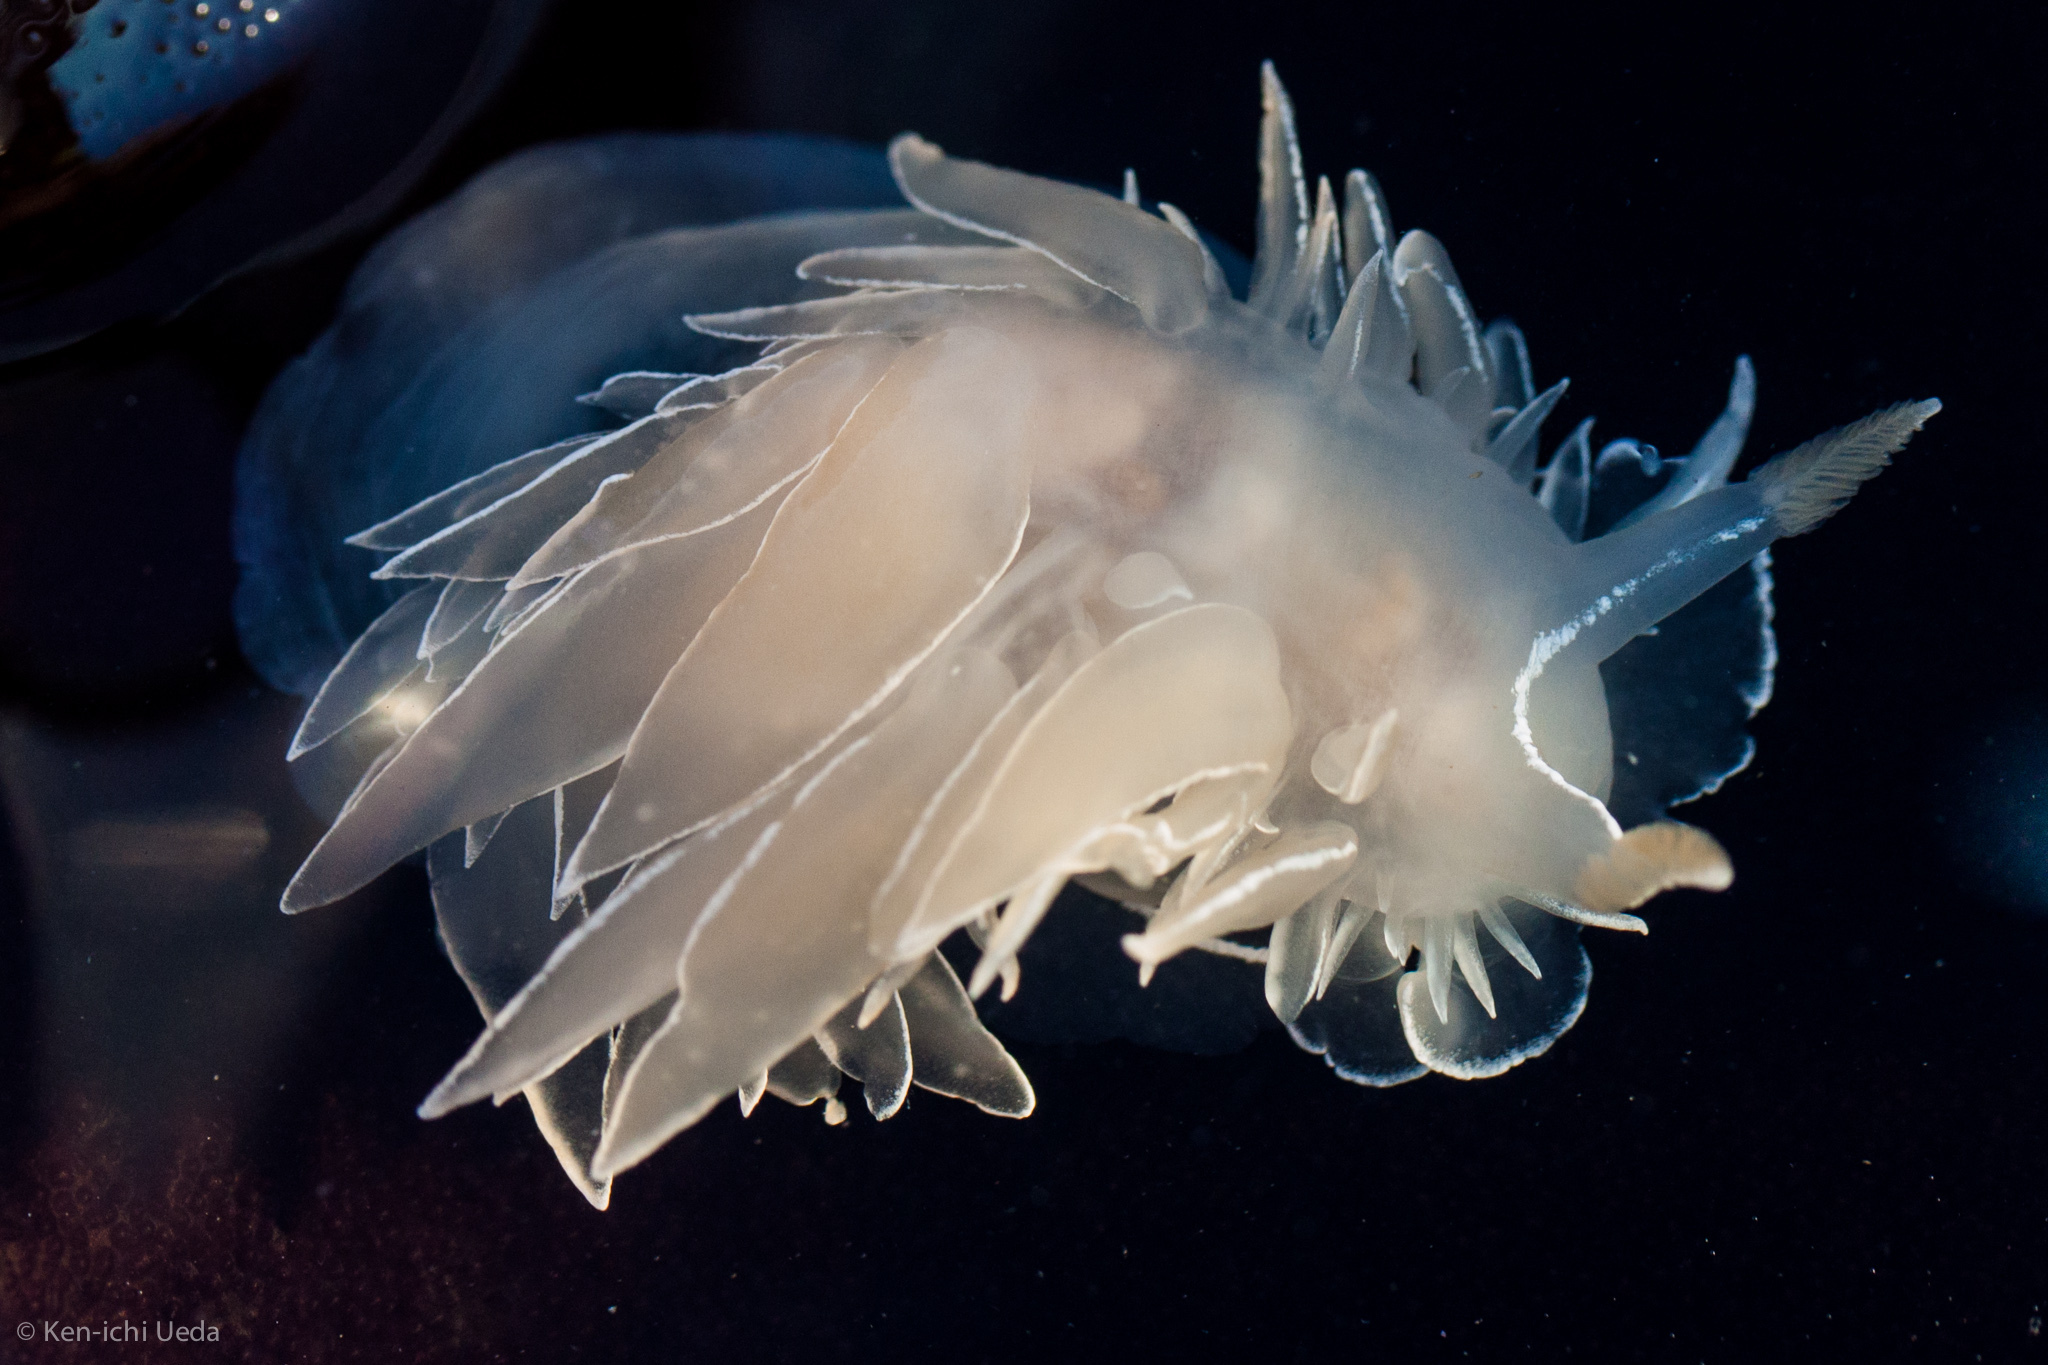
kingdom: Animalia
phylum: Mollusca
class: Gastropoda
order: Nudibranchia
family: Dironidae
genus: Dirona
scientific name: Dirona albolineata
